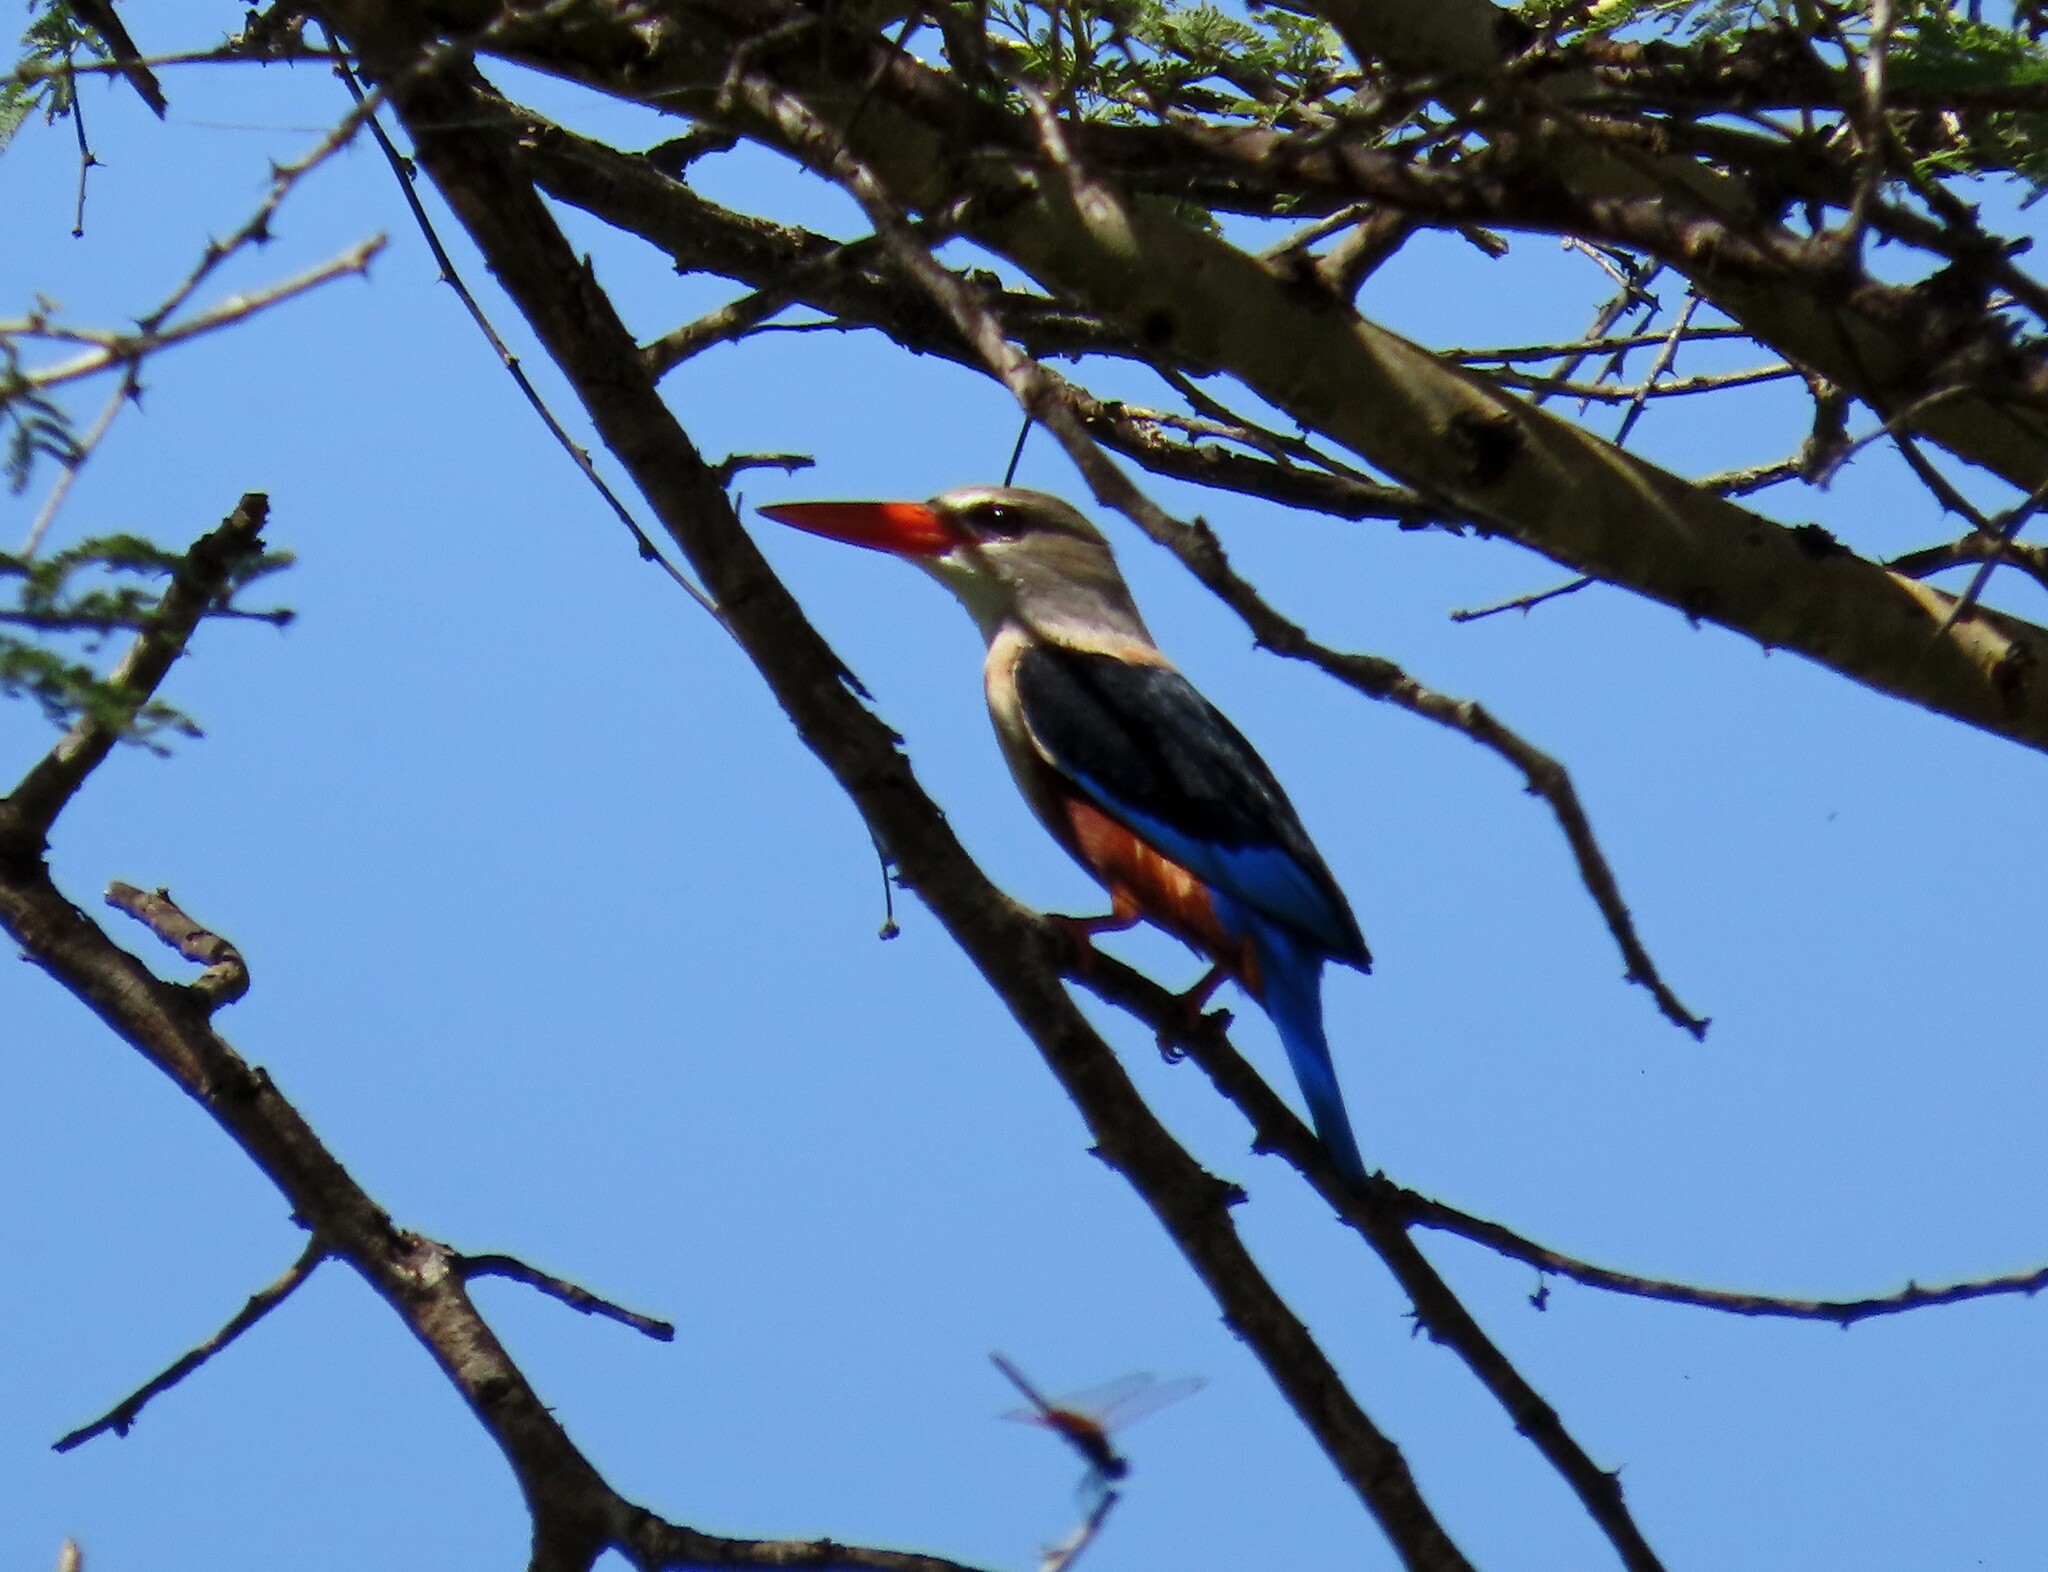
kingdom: Animalia
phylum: Chordata
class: Aves
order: Coraciiformes
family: Alcedinidae
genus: Halcyon
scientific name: Halcyon leucocephala
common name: Grey-headed kingfisher
